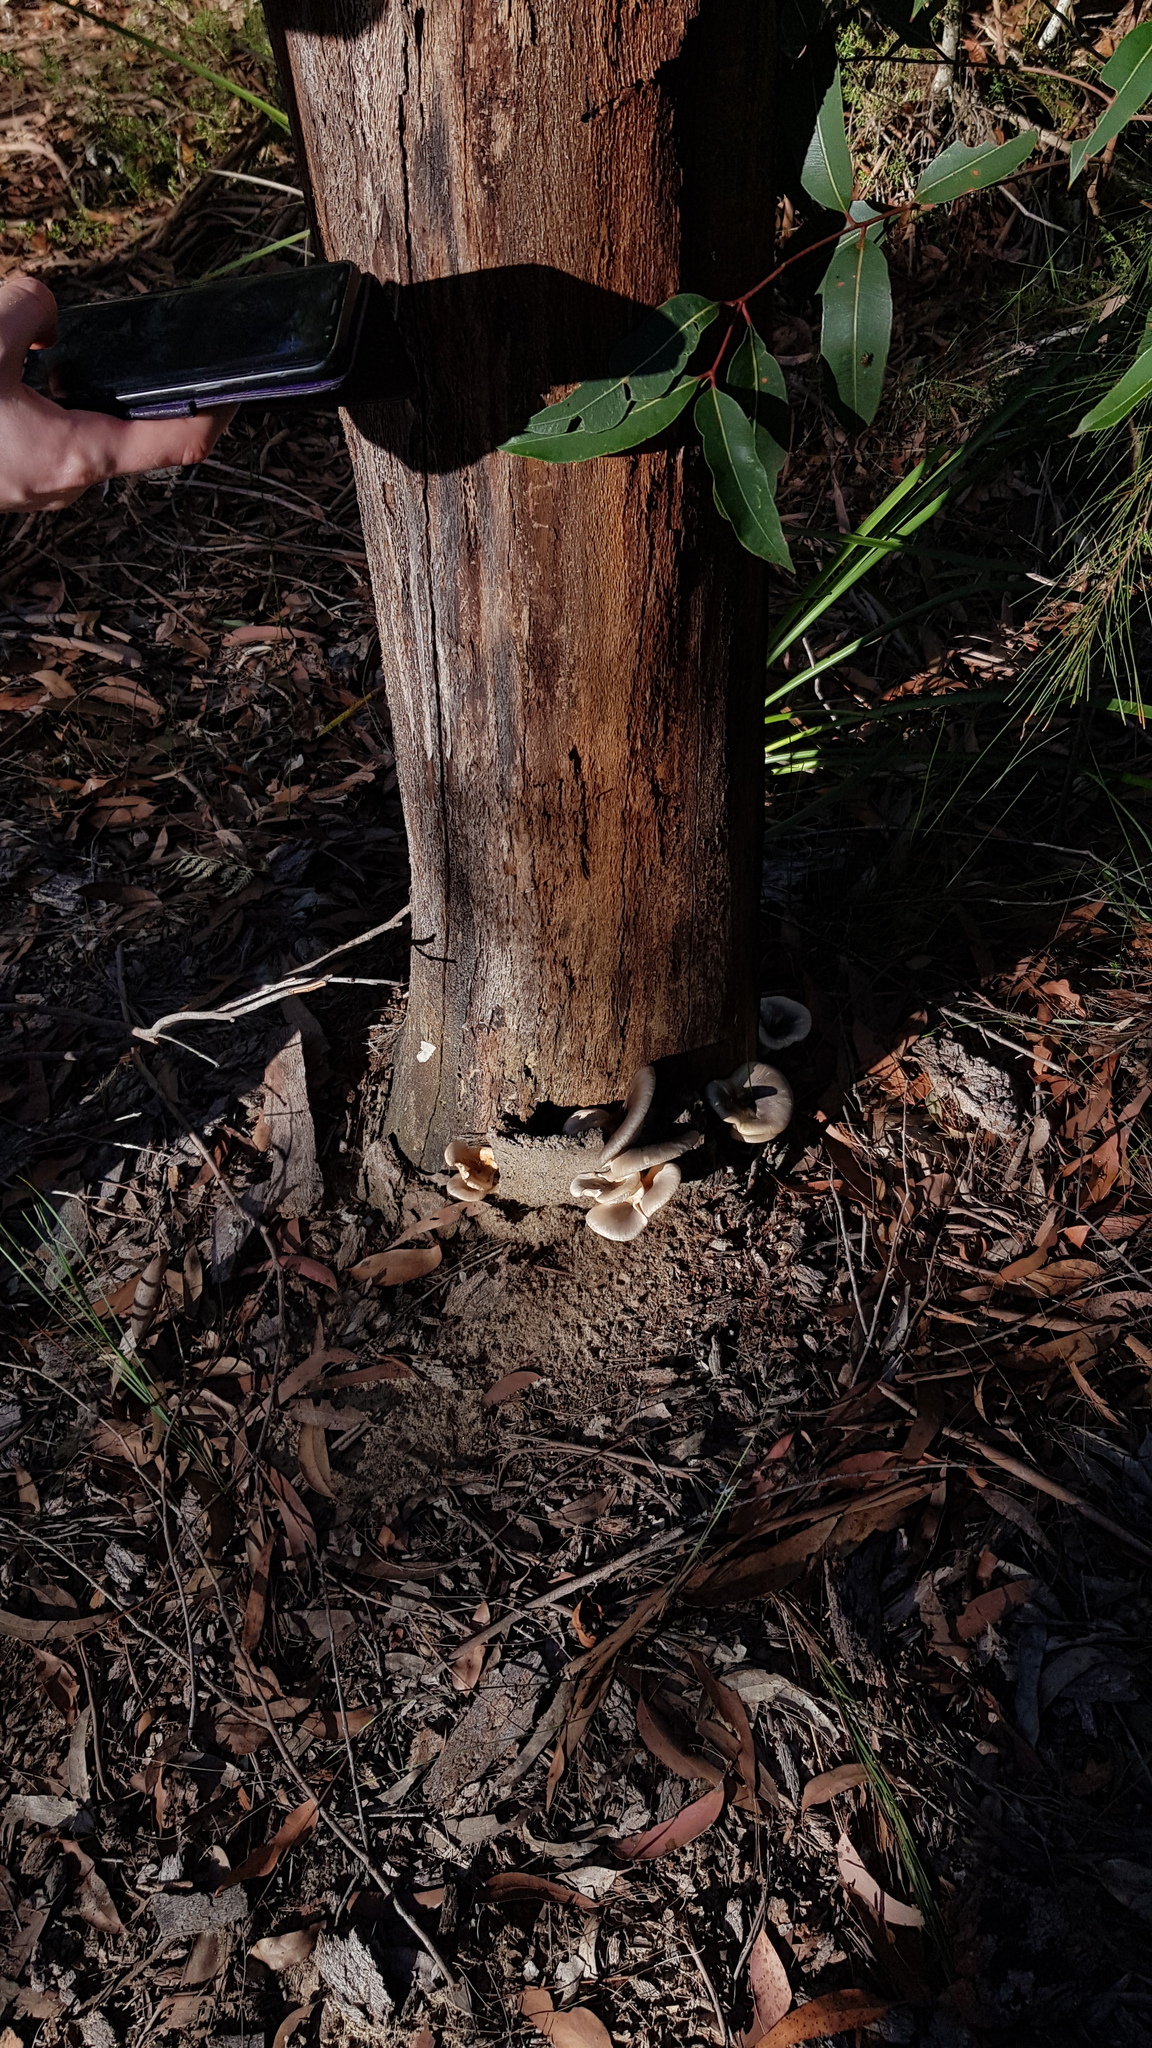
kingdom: Fungi
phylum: Basidiomycota
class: Agaricomycetes
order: Agaricales
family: Omphalotaceae
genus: Omphalotus
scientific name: Omphalotus nidiformis
